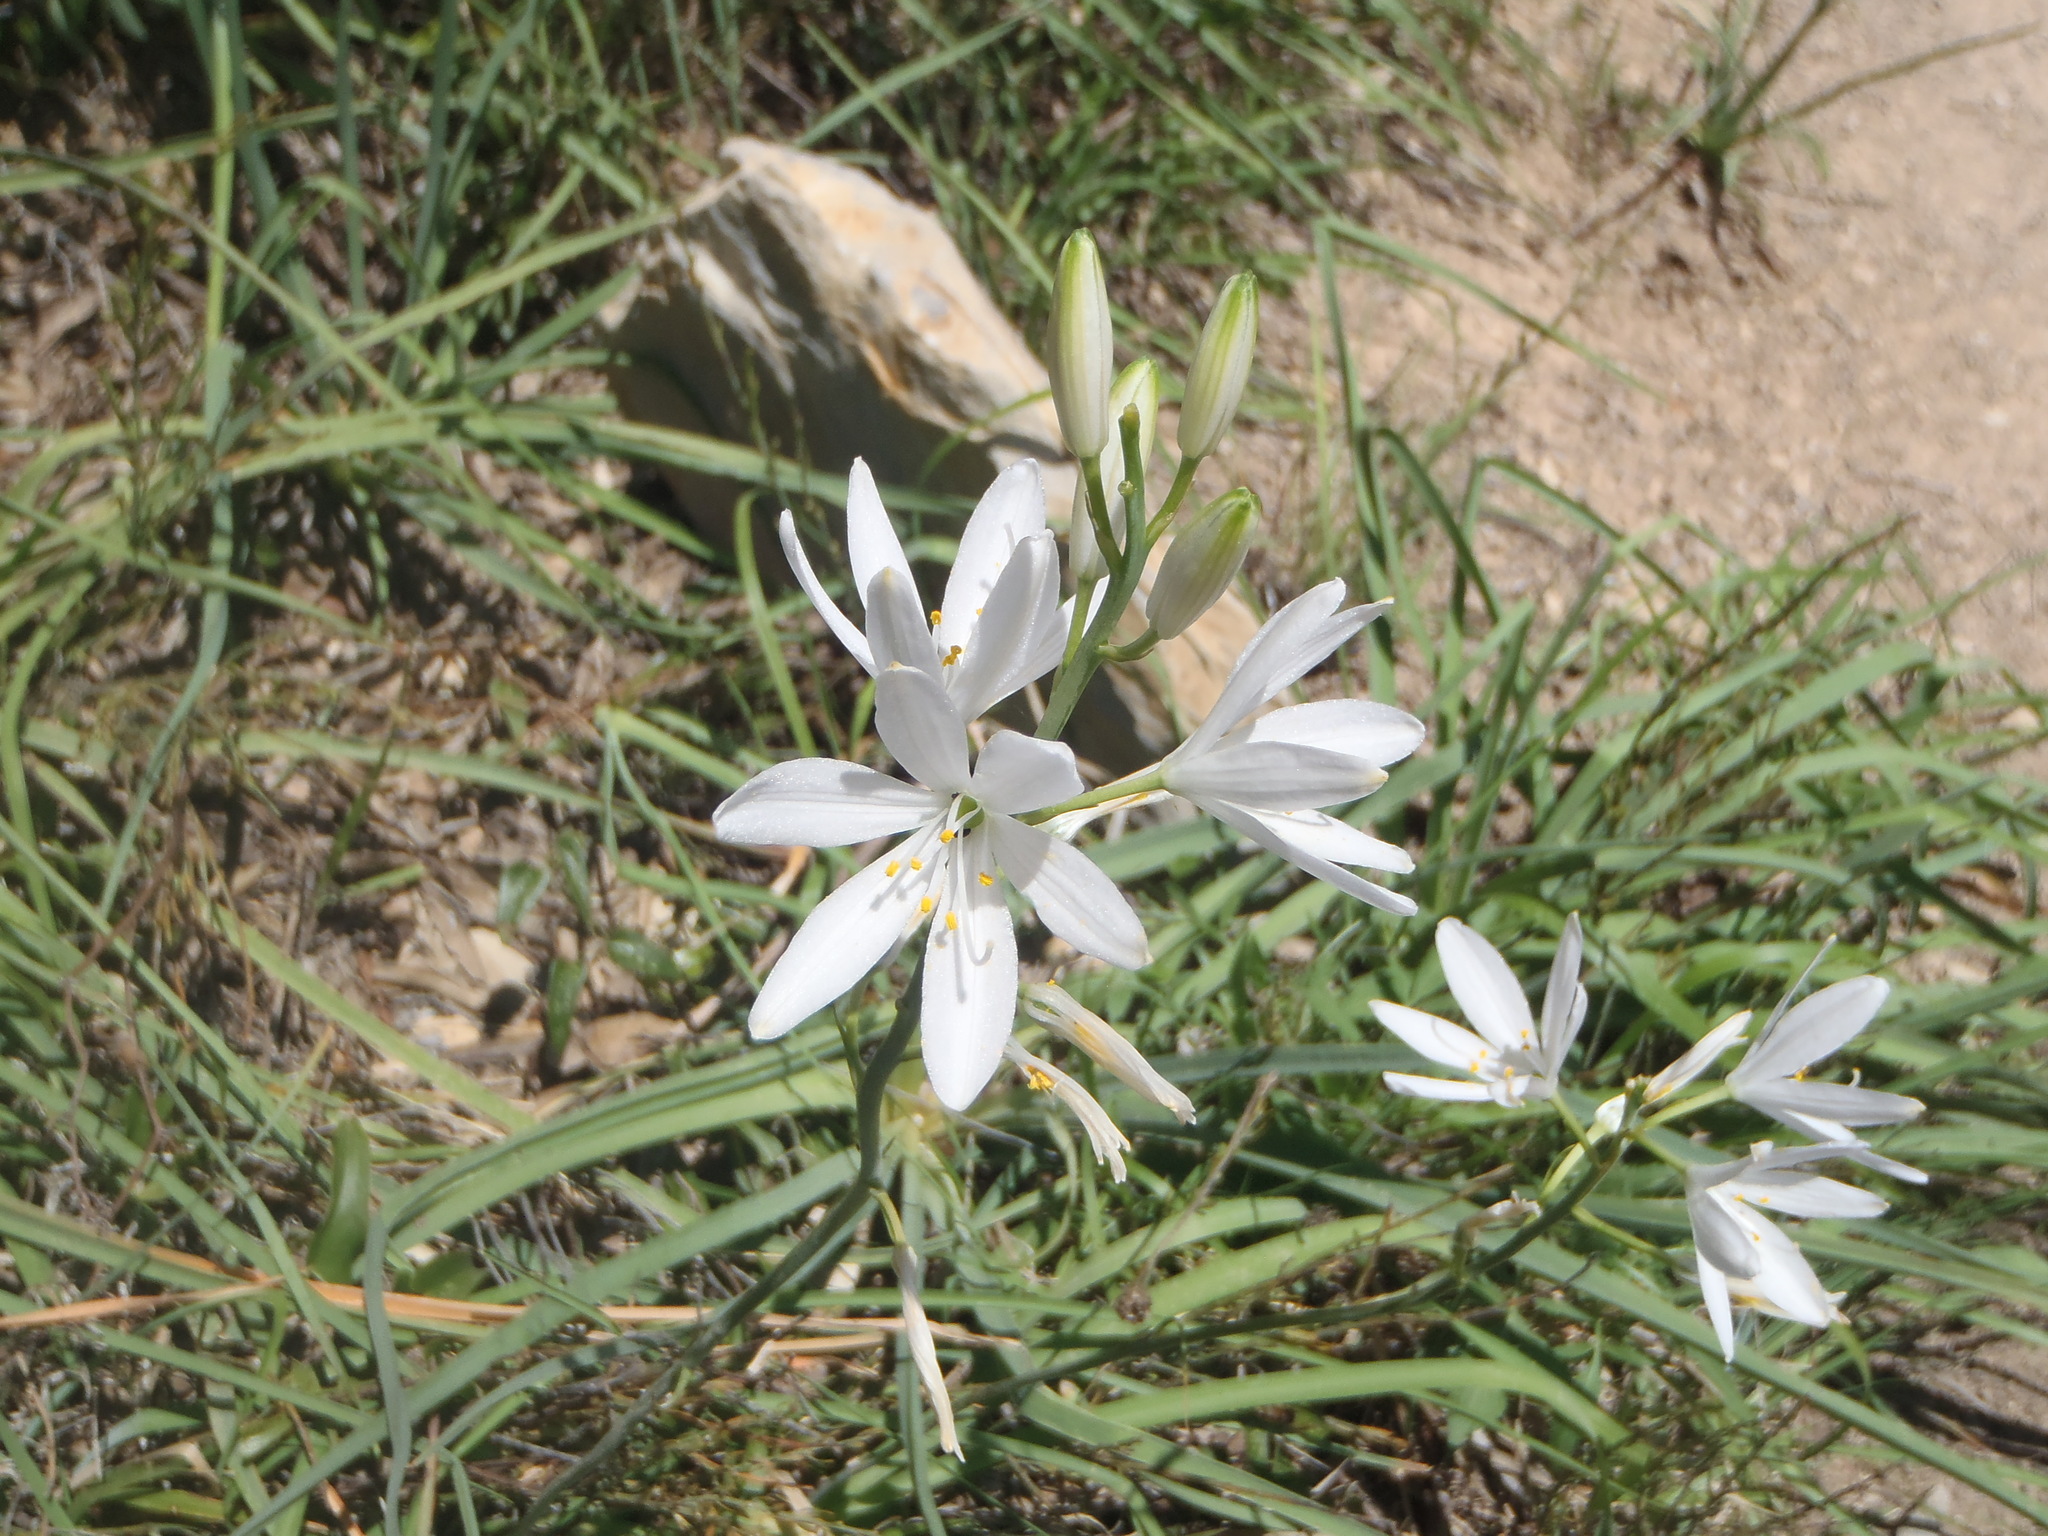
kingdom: Plantae
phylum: Tracheophyta
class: Liliopsida
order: Asparagales
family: Asparagaceae
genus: Anthericum
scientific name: Anthericum liliago
